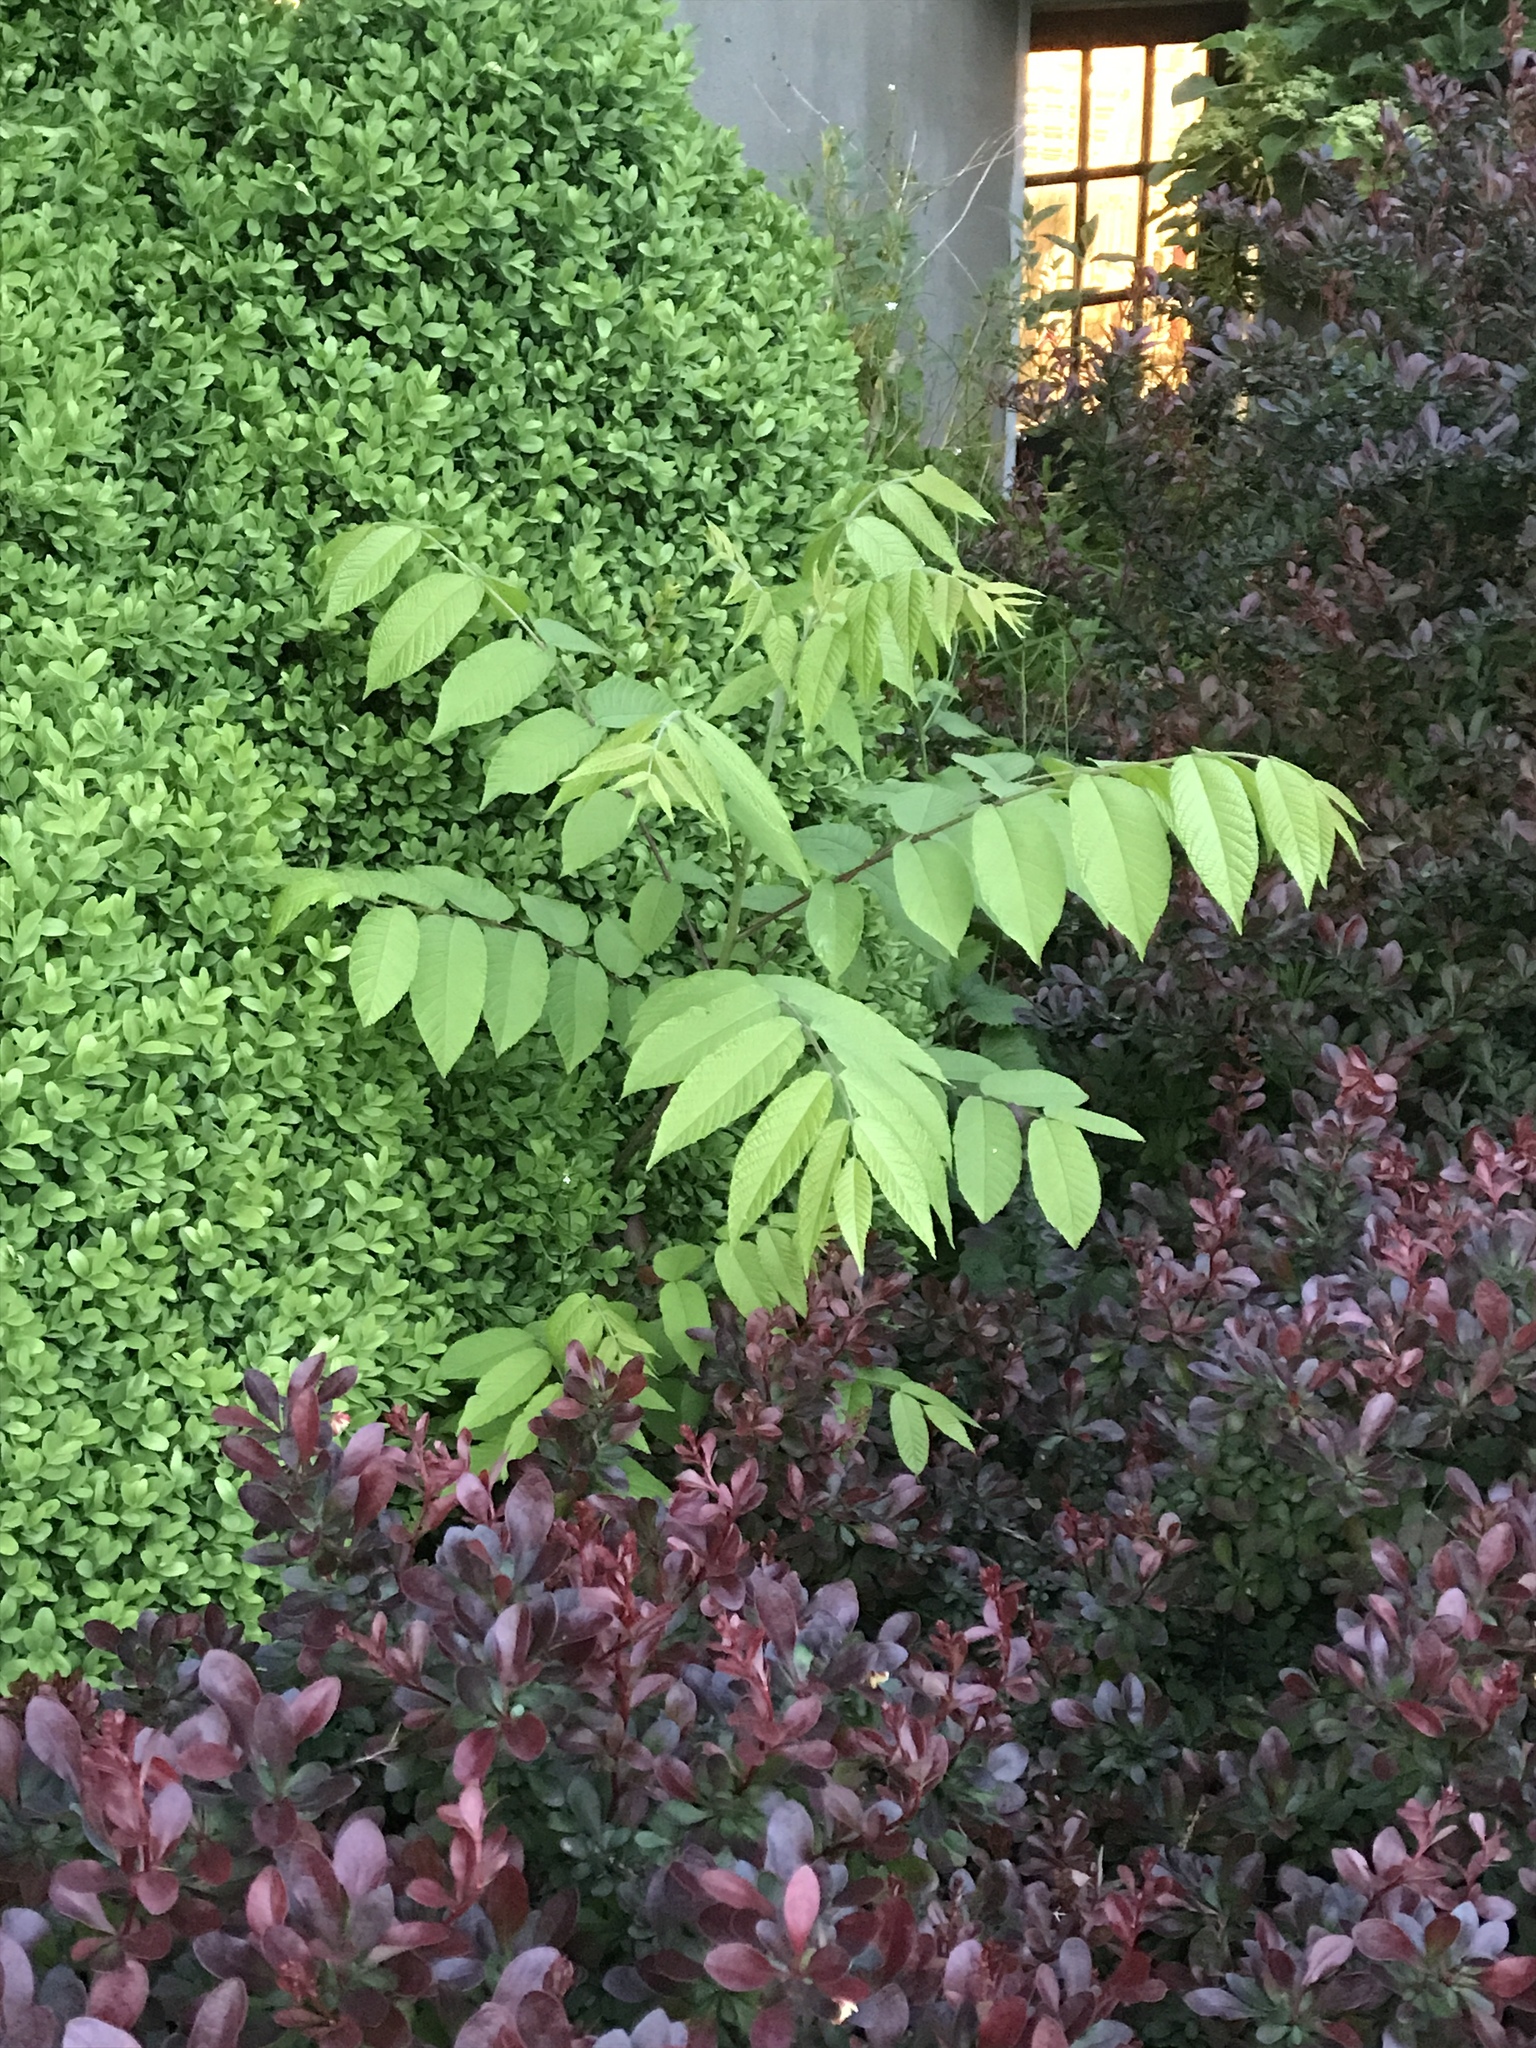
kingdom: Plantae
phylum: Tracheophyta
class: Magnoliopsida
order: Fagales
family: Juglandaceae
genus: Juglans
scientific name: Juglans nigra
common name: Black walnut
